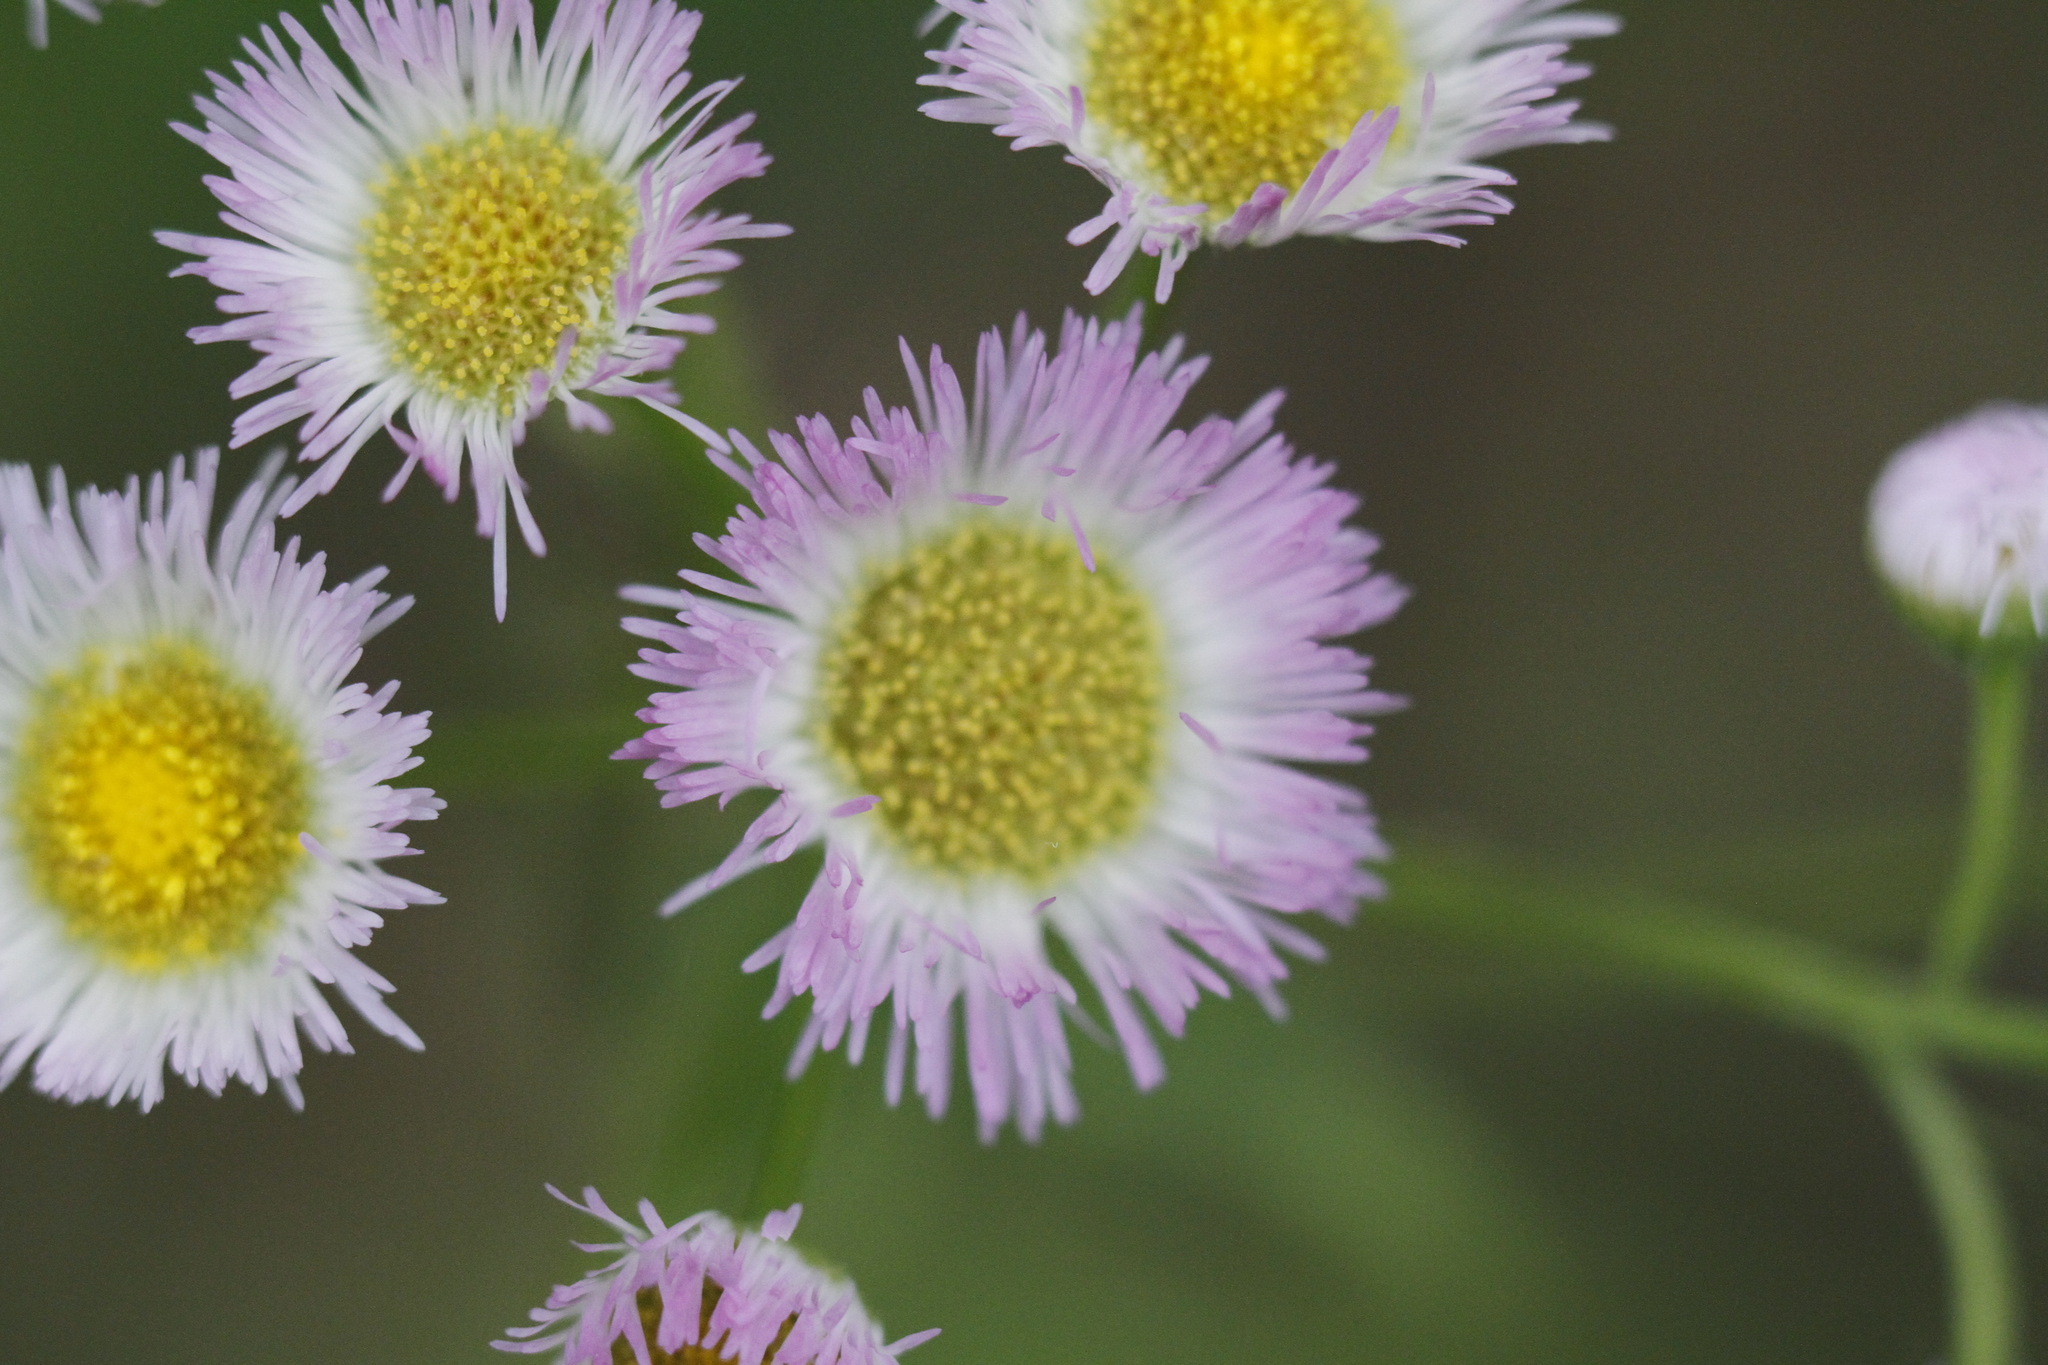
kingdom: Plantae
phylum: Tracheophyta
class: Magnoliopsida
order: Asterales
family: Asteraceae
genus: Erigeron
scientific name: Erigeron philadelphicus
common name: Robin's-plantain
